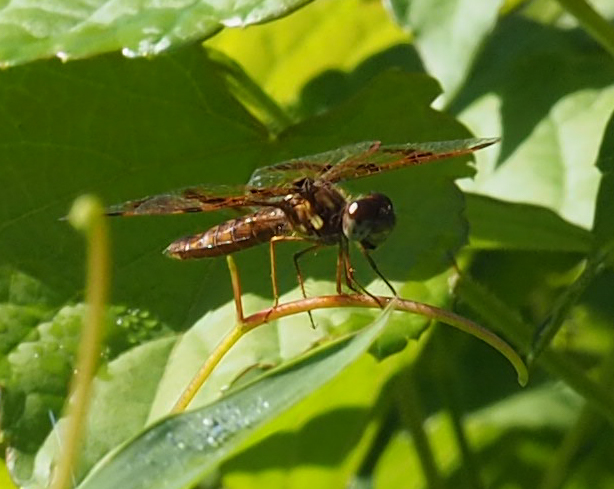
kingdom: Animalia
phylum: Arthropoda
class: Insecta
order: Odonata
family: Libellulidae
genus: Perithemis
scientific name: Perithemis tenera
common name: Eastern amberwing
